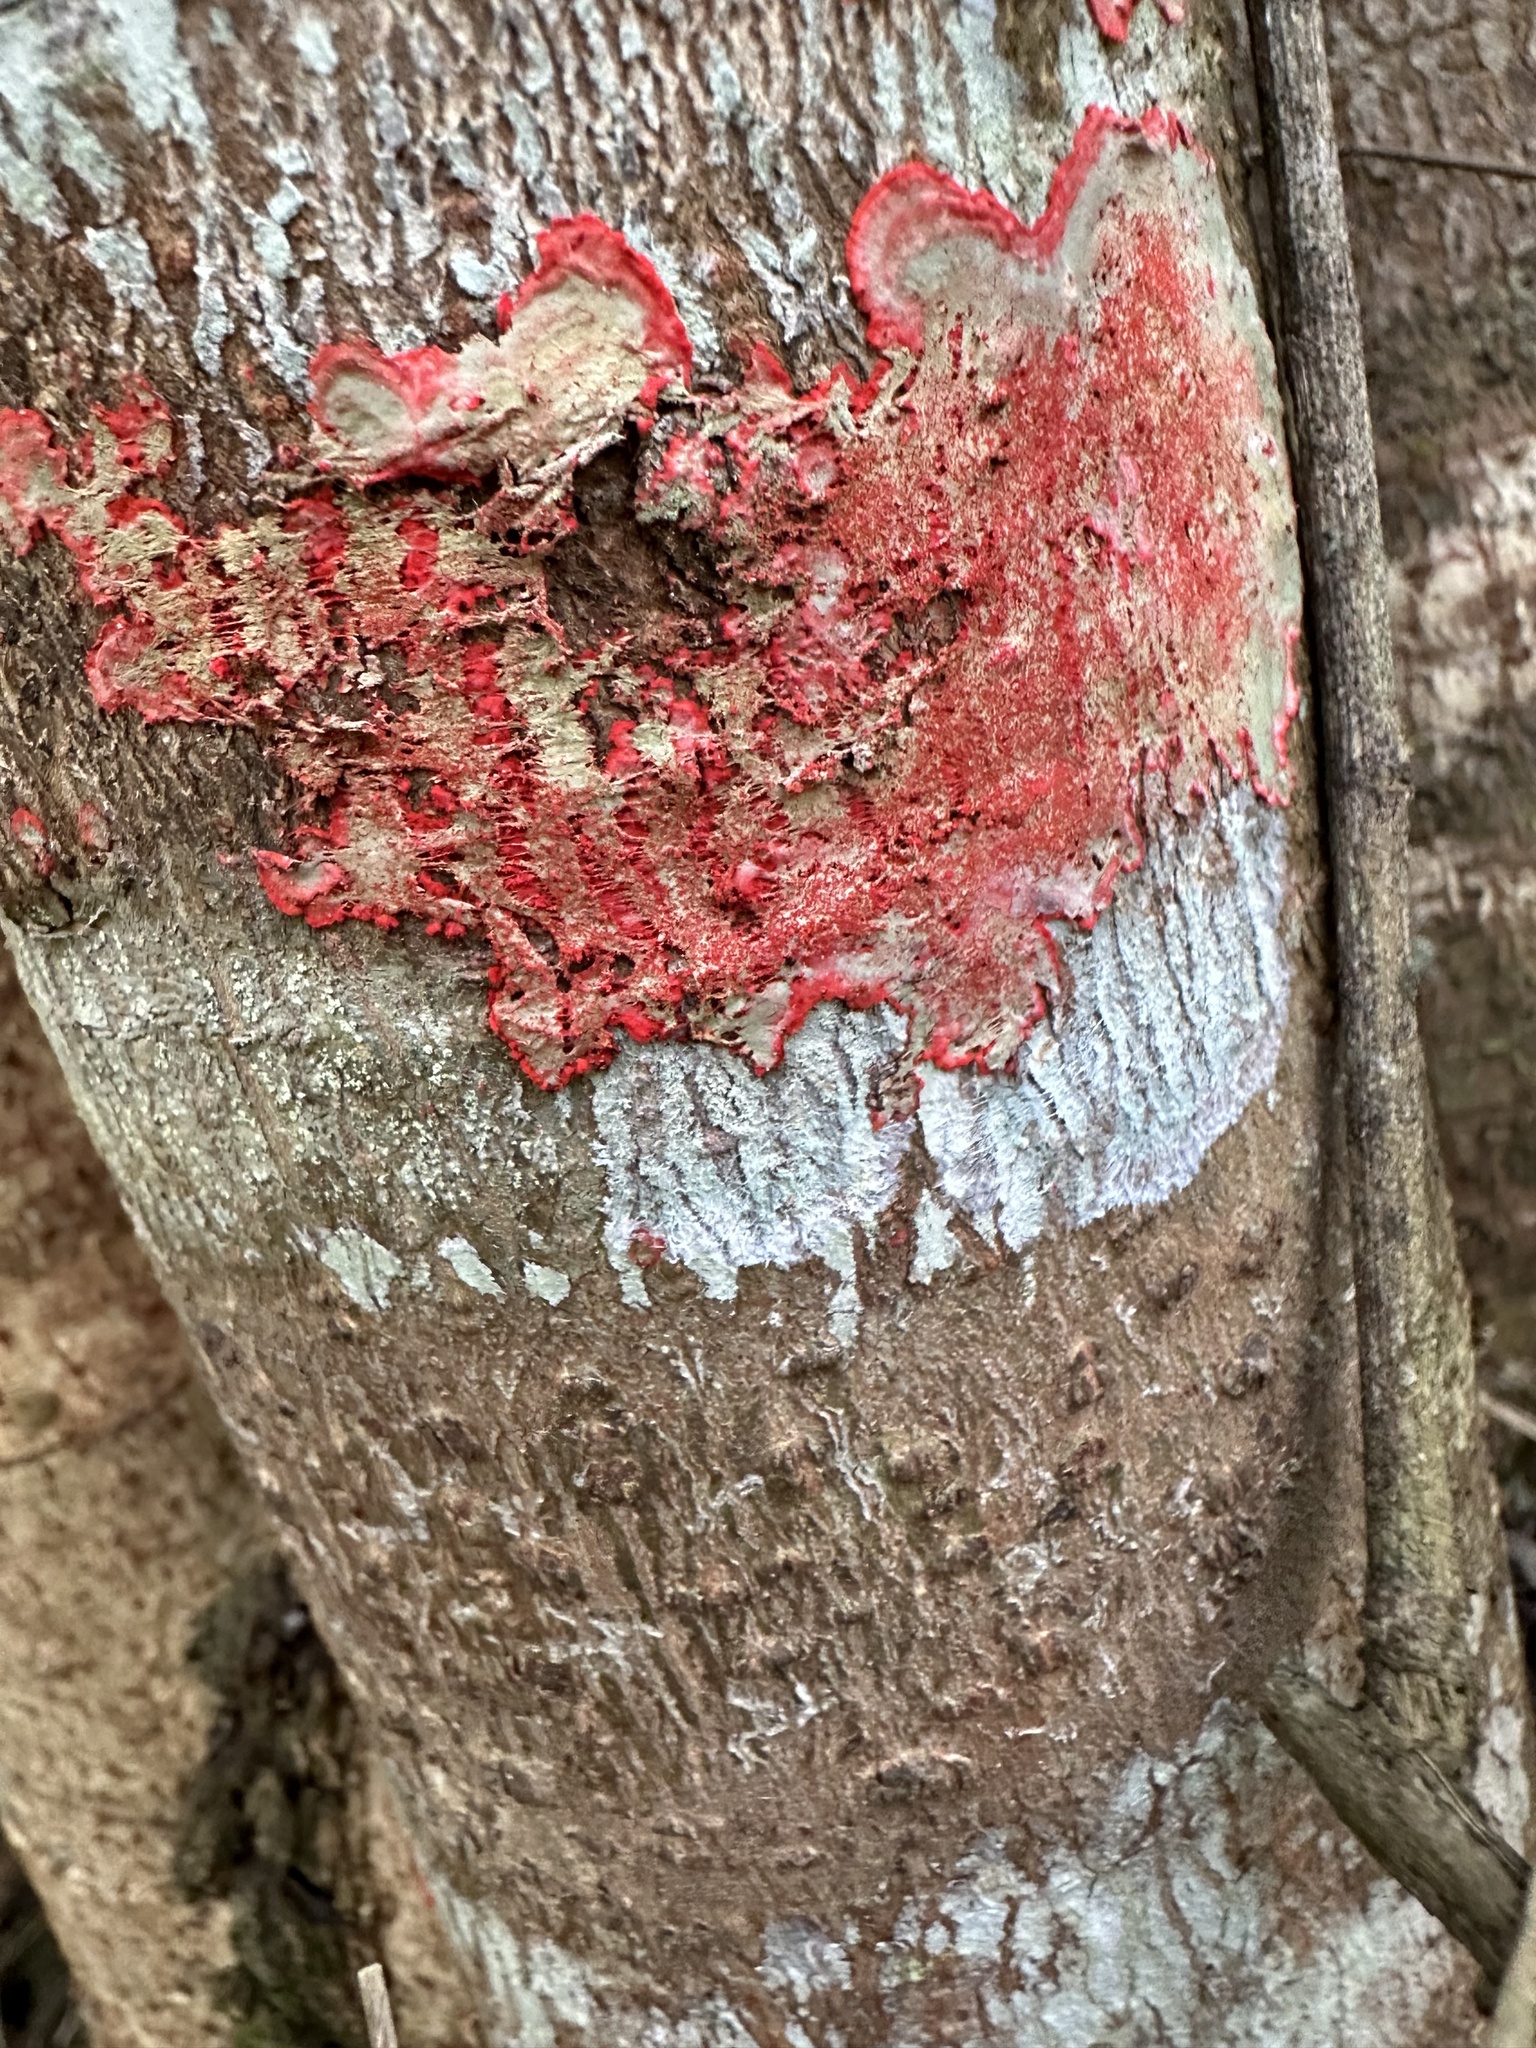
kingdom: Fungi
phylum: Ascomycota
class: Arthoniomycetes
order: Arthoniales
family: Arthoniaceae
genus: Herpothallon
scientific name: Herpothallon rubrocinctum
